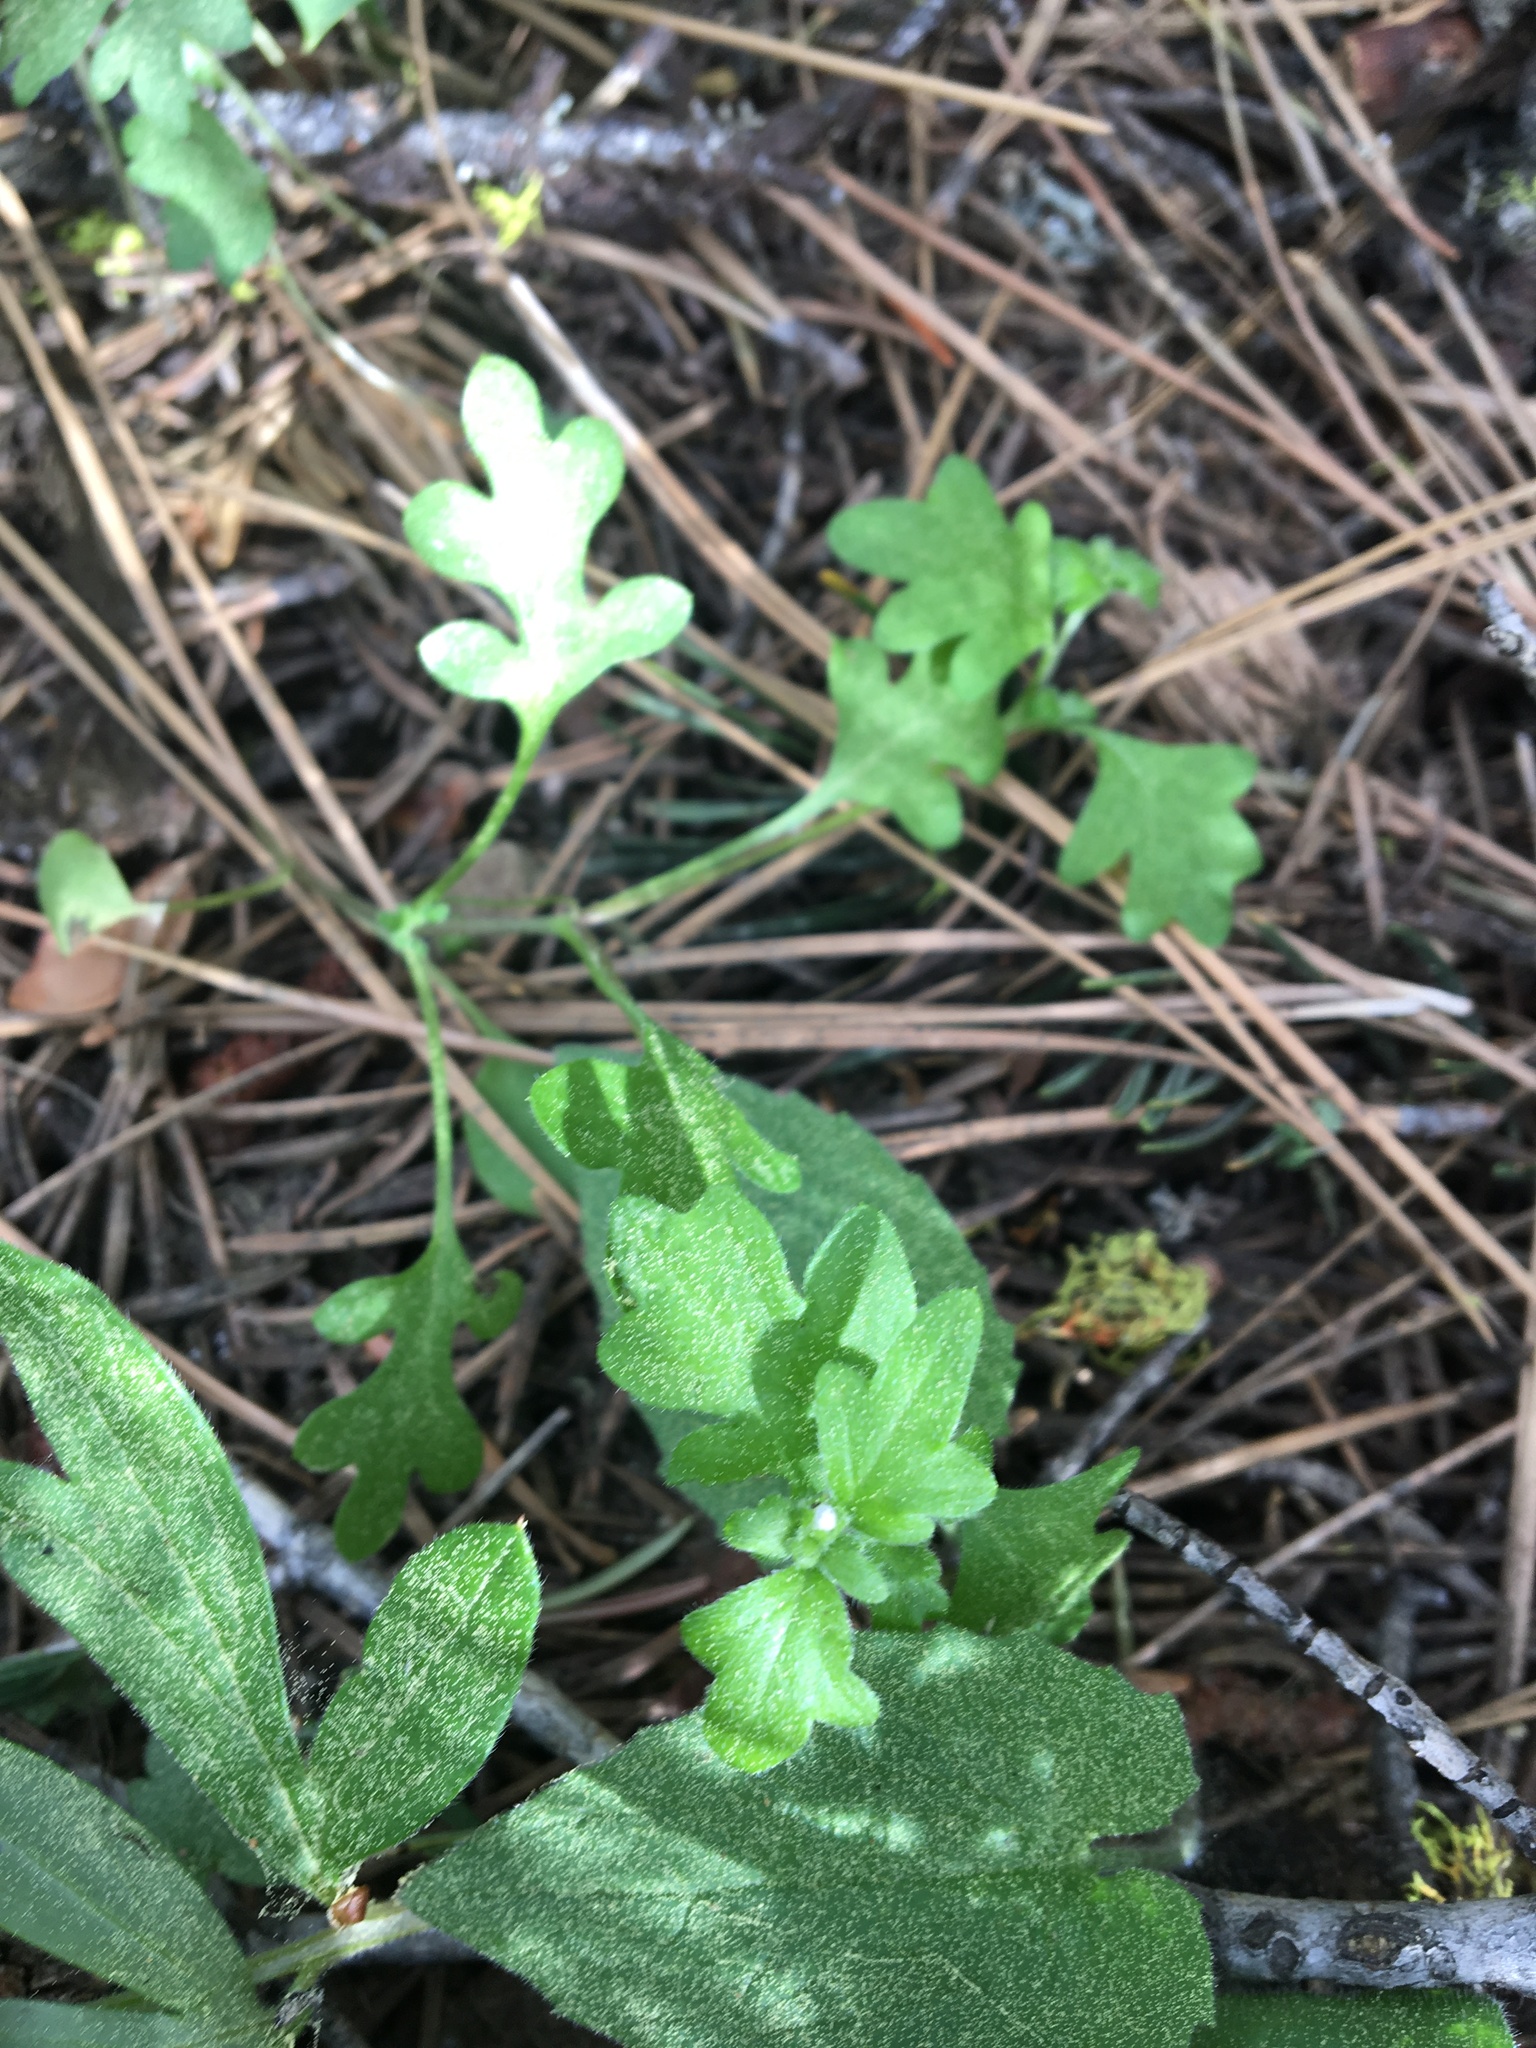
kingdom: Plantae
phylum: Tracheophyta
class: Magnoliopsida
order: Boraginales
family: Hydrophyllaceae
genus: Nemophila
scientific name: Nemophila parviflora
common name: Small-flowered baby-blue-eyes
